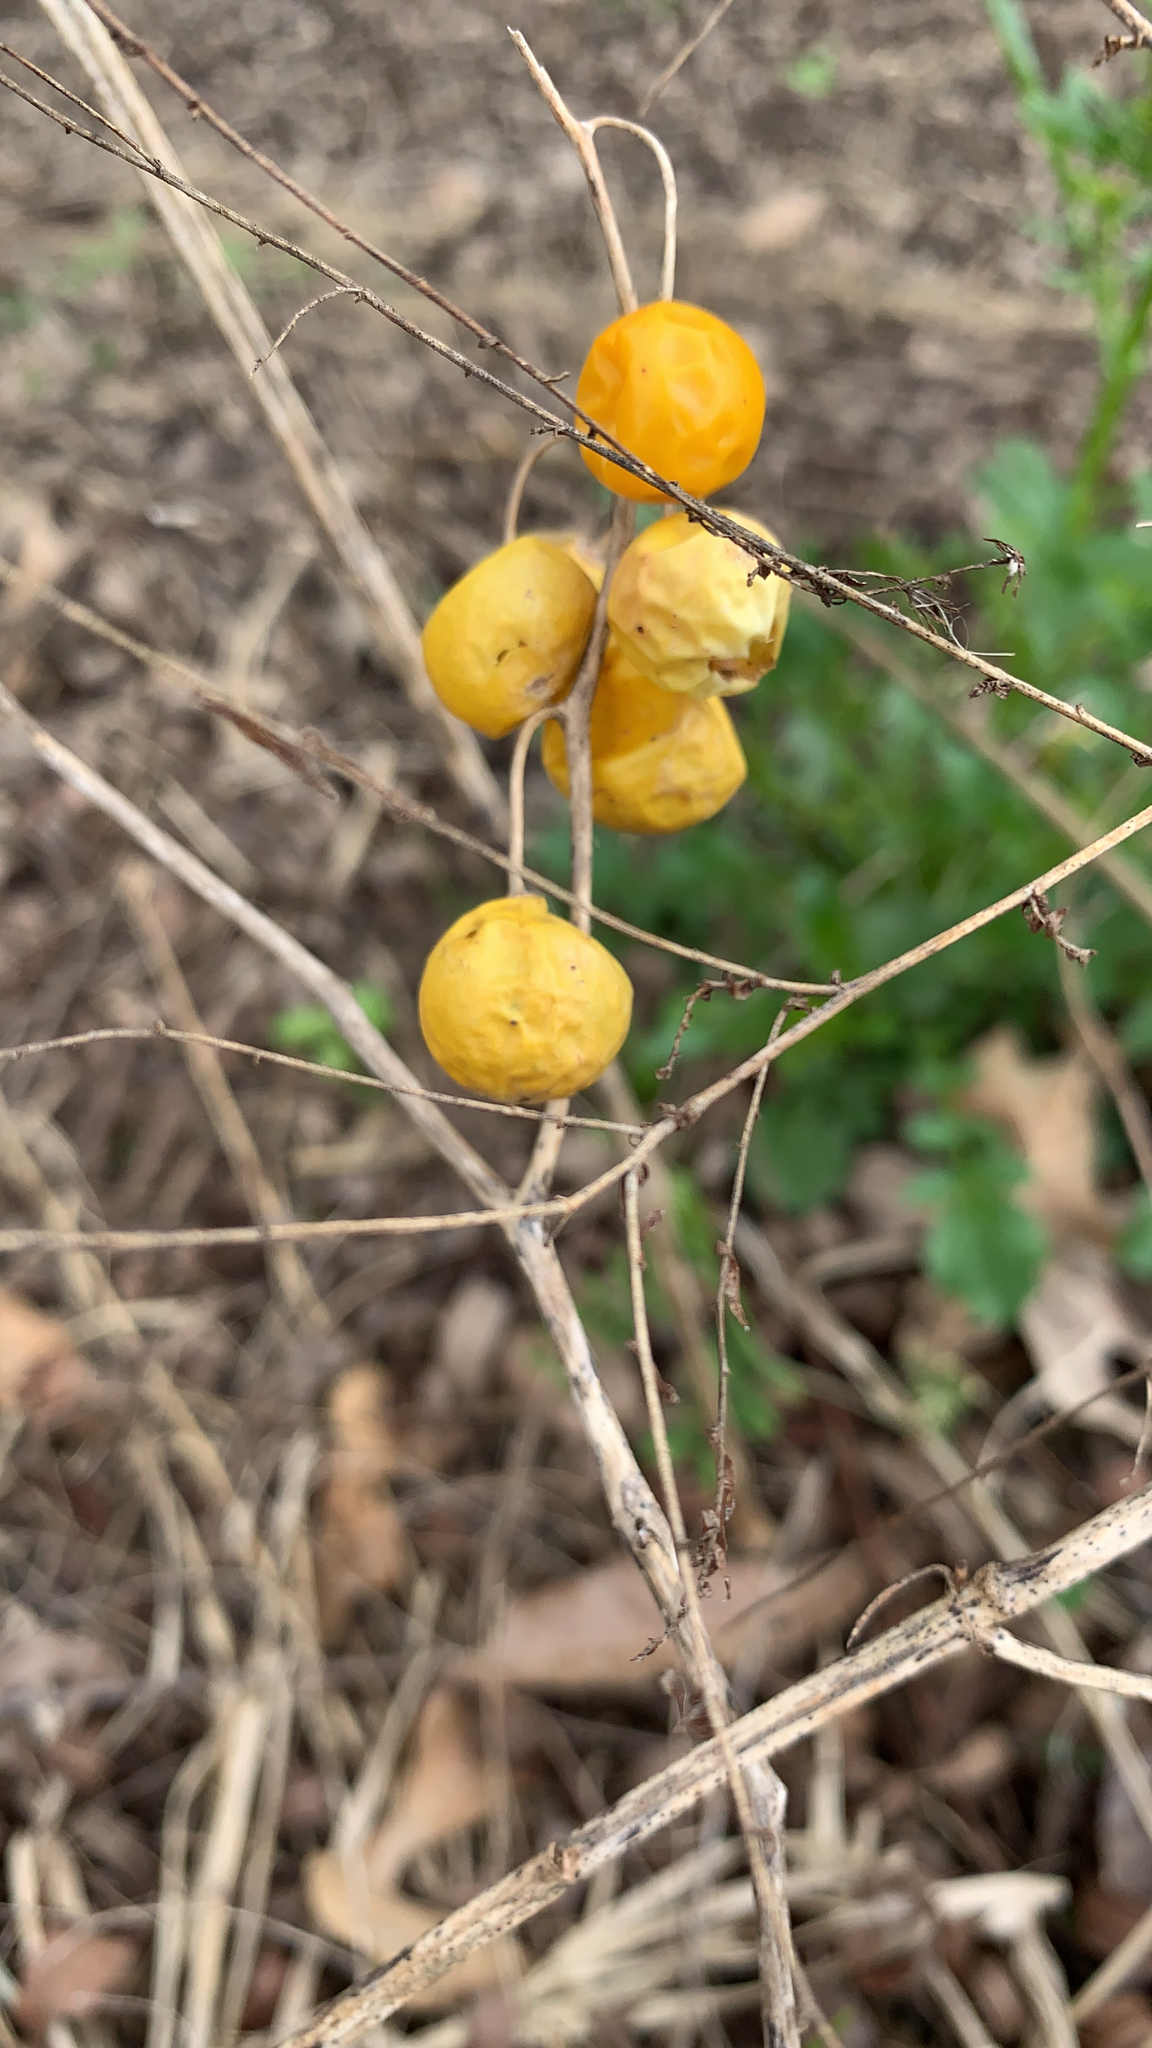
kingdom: Plantae
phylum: Tracheophyta
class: Magnoliopsida
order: Solanales
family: Solanaceae
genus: Solanum
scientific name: Solanum carolinense
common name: Horse-nettle
